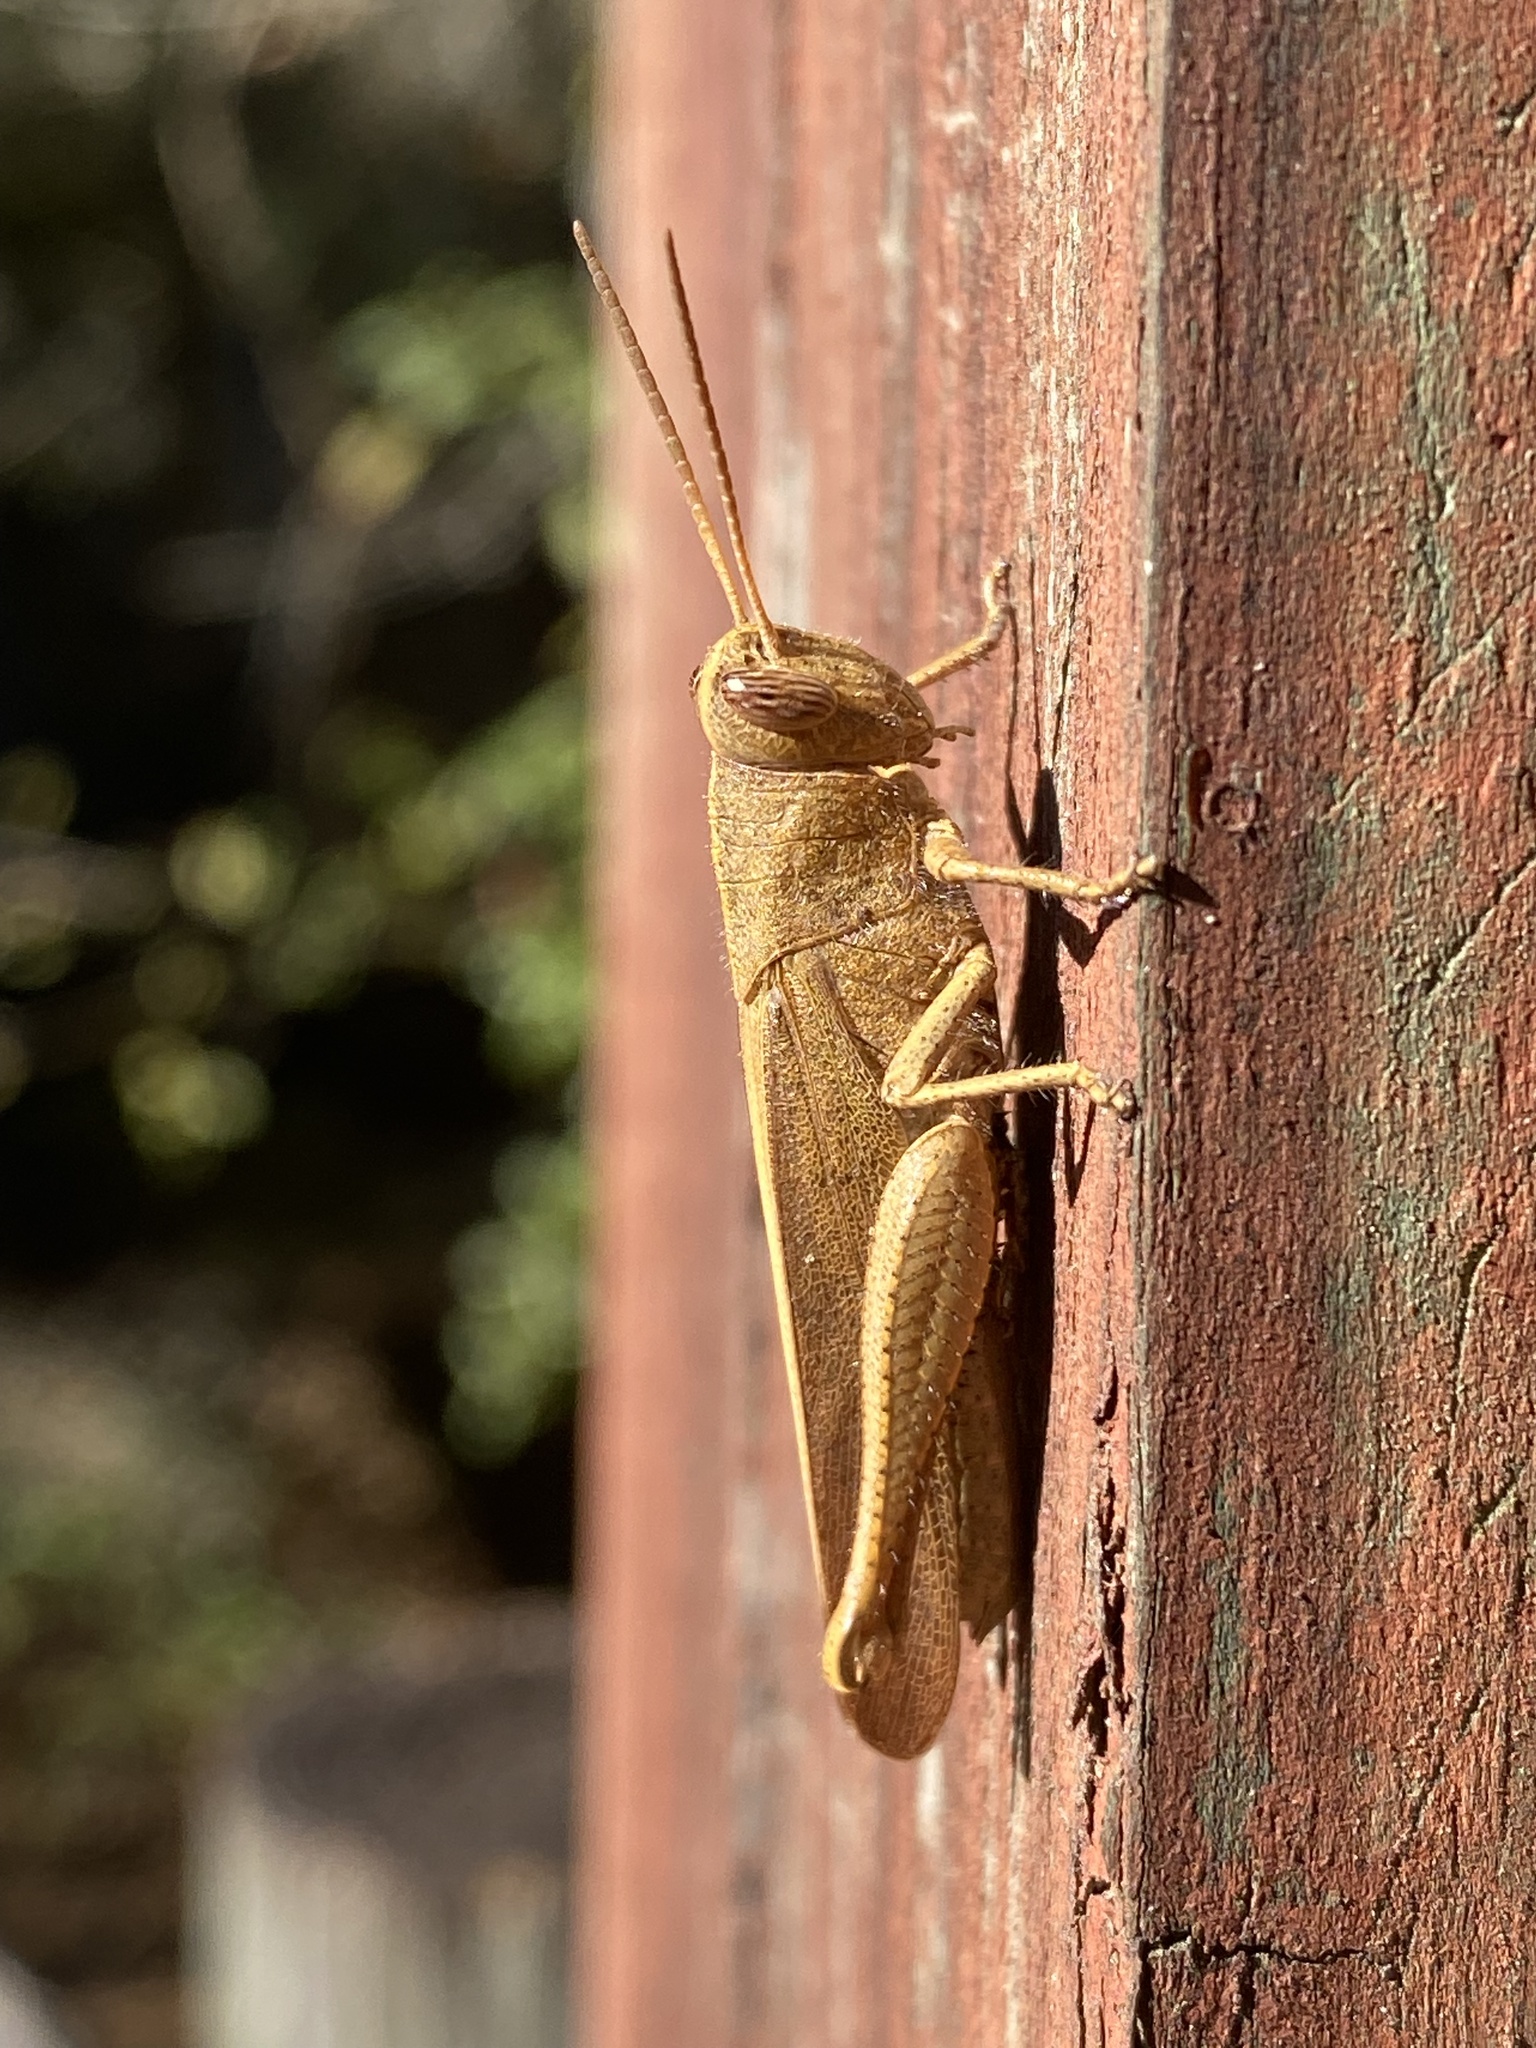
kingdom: Animalia
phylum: Arthropoda
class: Insecta
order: Orthoptera
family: Acrididae
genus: Schistocerca
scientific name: Schistocerca damnifica
